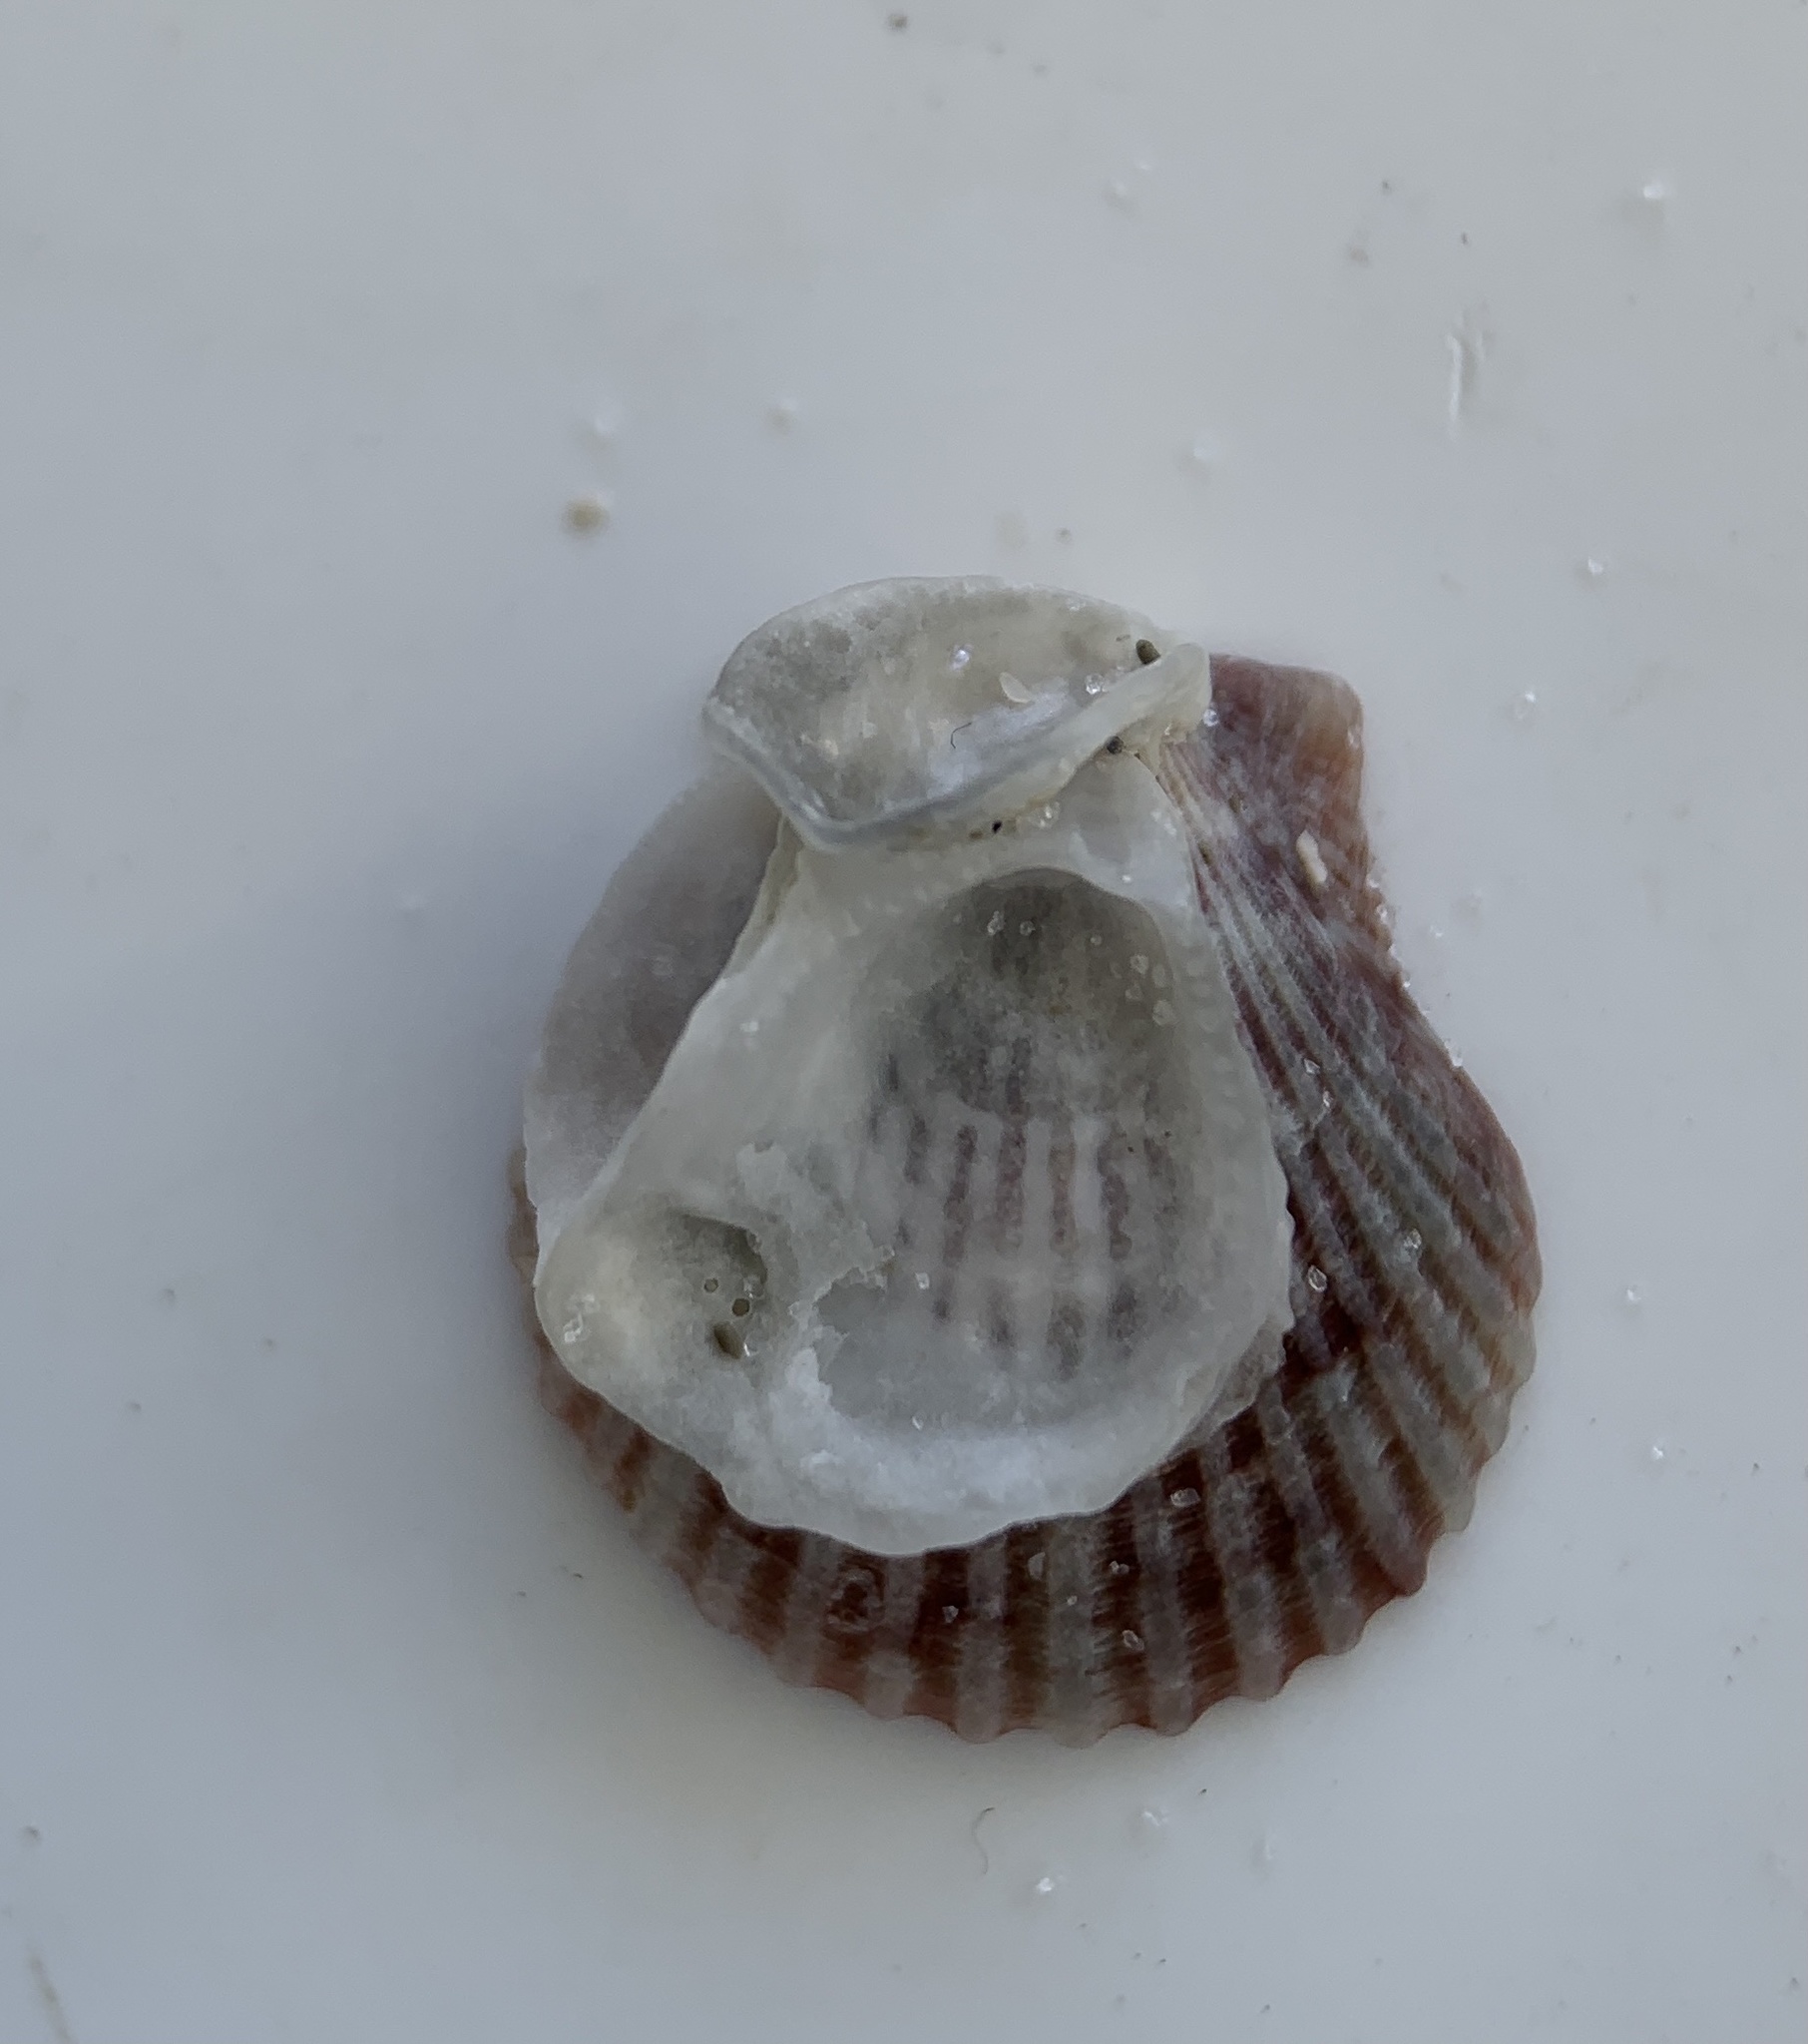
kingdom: Animalia
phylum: Mollusca
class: Bivalvia
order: Ostreida
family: Ostreidae
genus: Ostrea
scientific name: Ostrea equestris
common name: Crested oyster
